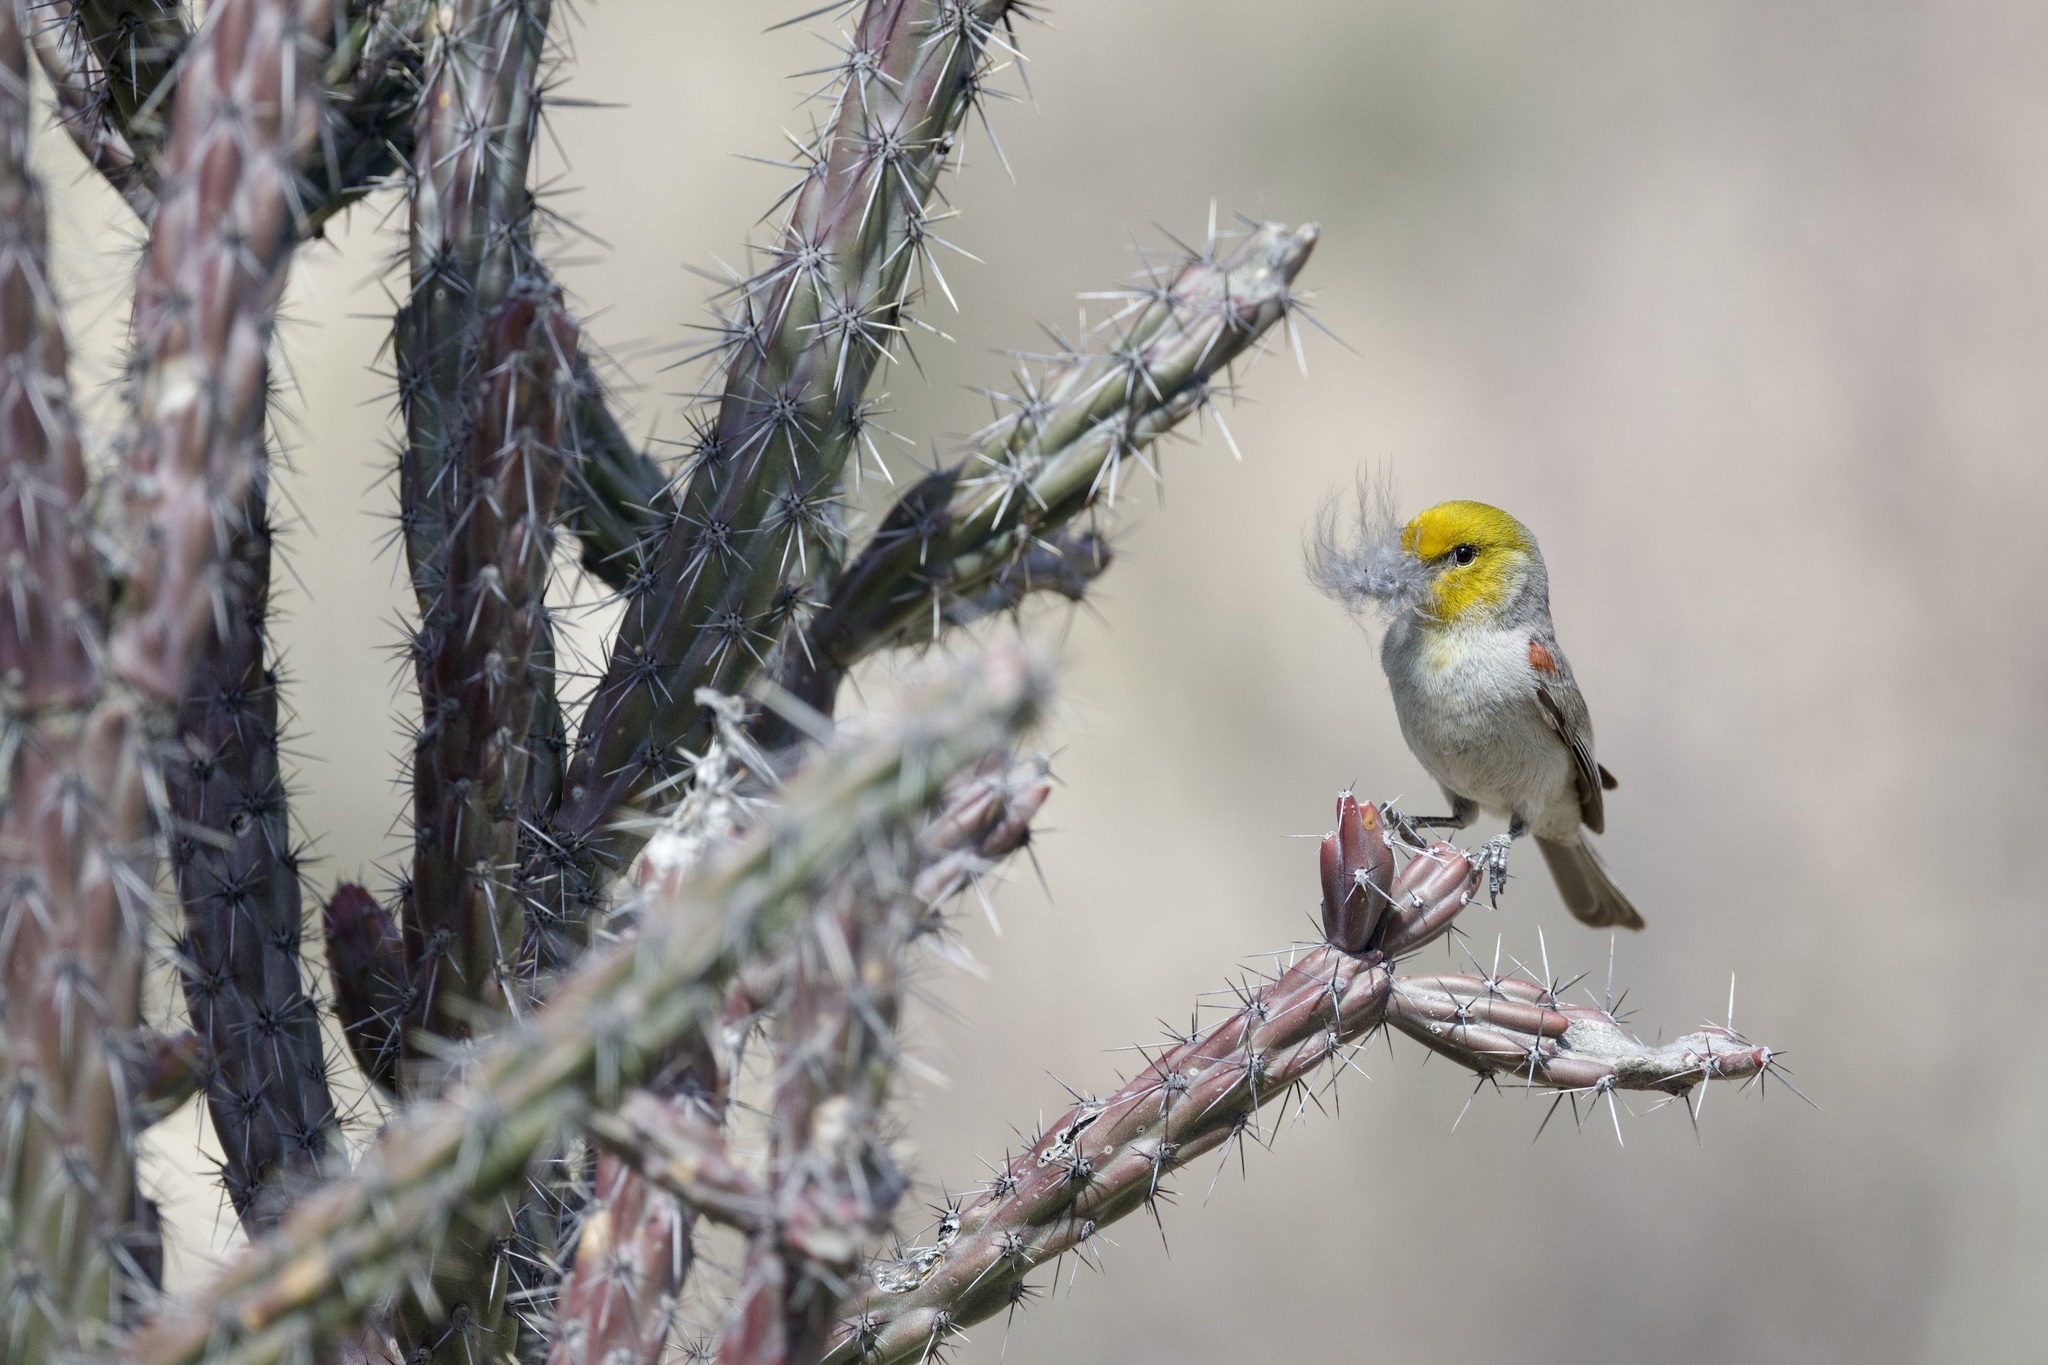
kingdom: Animalia
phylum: Chordata
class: Aves
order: Passeriformes
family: Remizidae
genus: Auriparus
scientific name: Auriparus flaviceps
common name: Verdin
